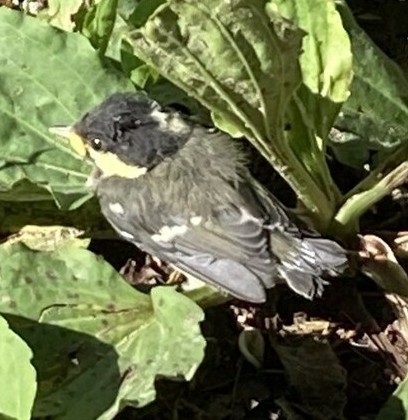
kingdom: Animalia
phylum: Chordata
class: Aves
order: Passeriformes
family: Paridae
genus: Periparus
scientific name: Periparus ater
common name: Coal tit
